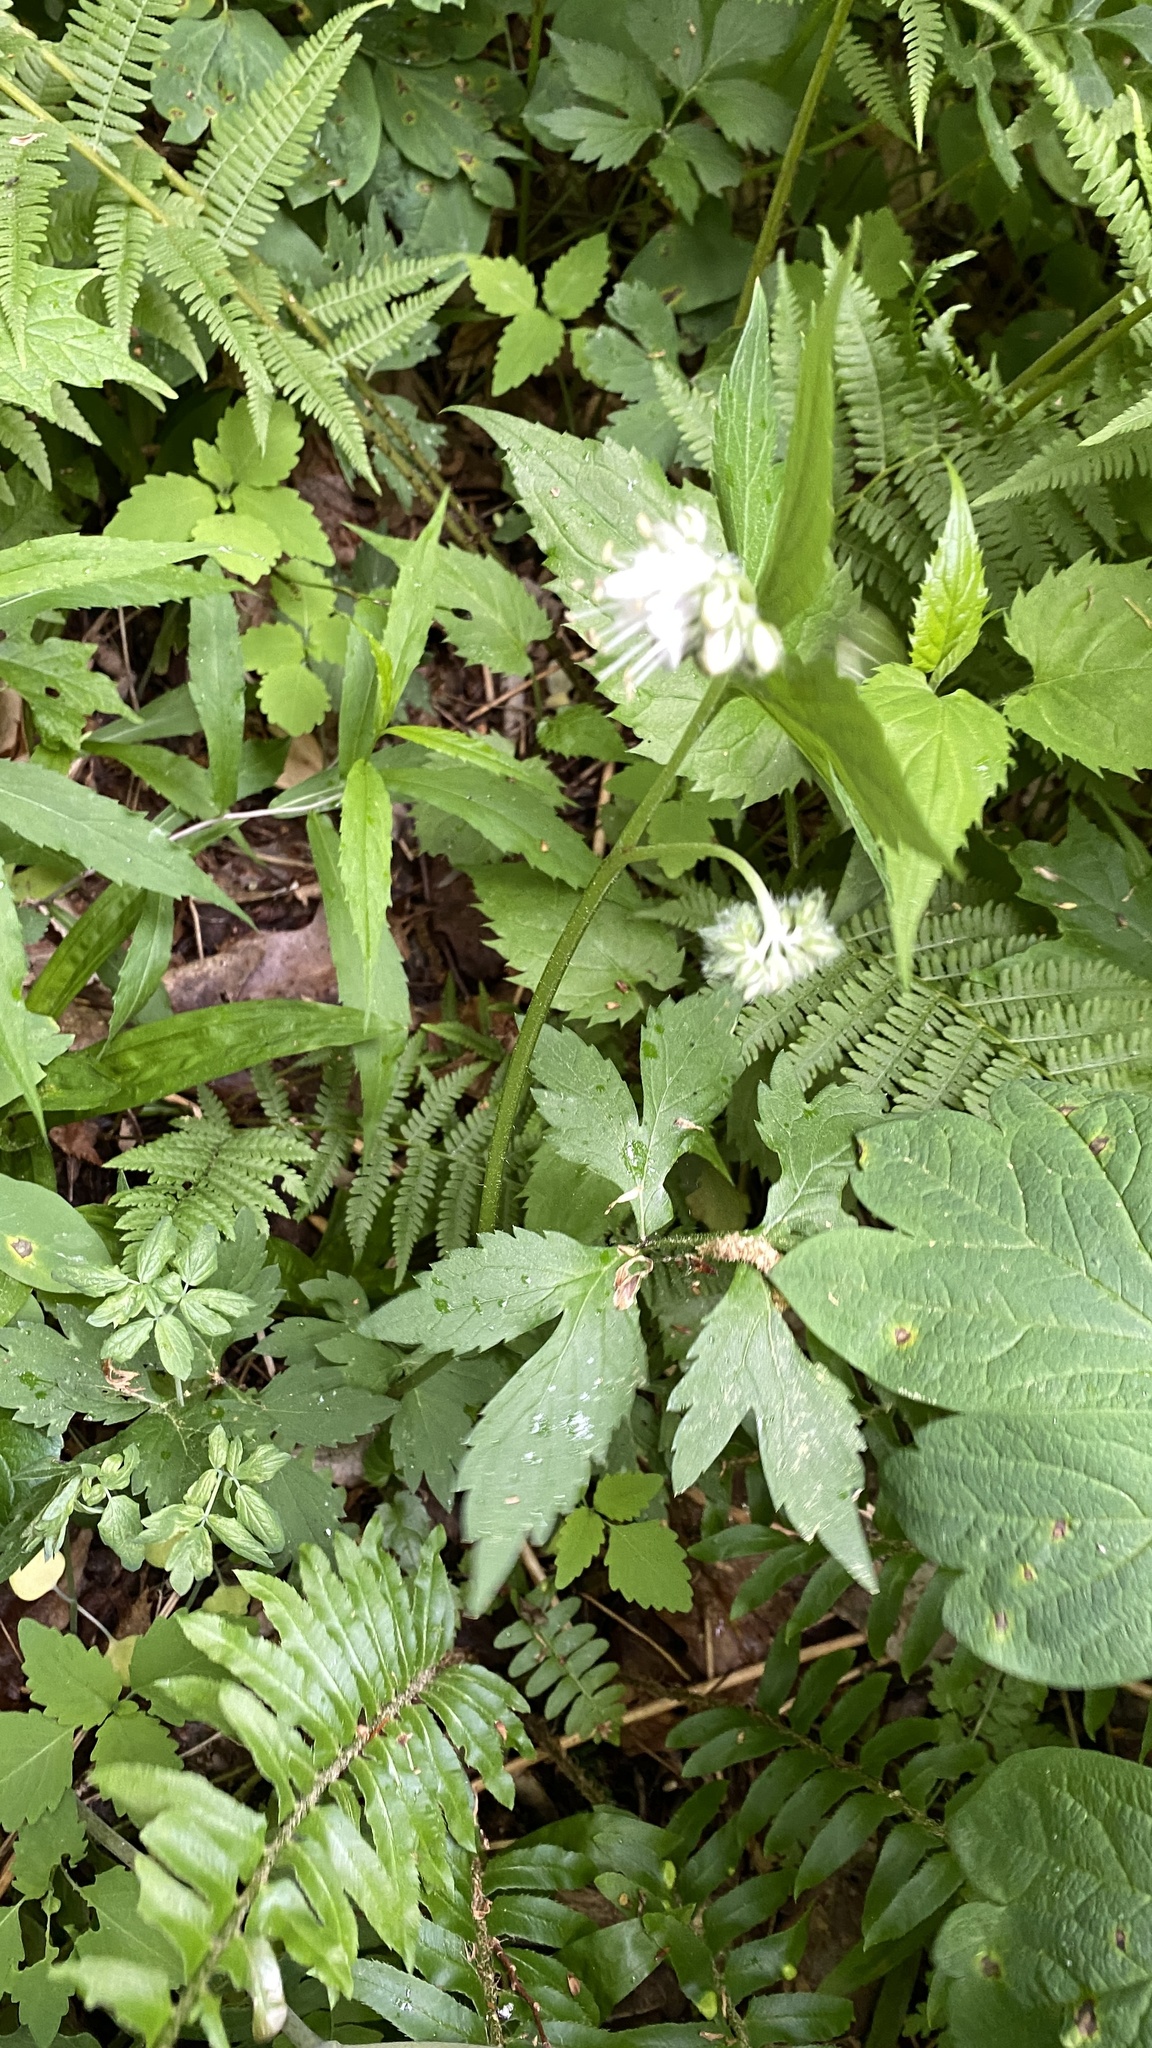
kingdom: Plantae
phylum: Tracheophyta
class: Magnoliopsida
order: Boraginales
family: Hydrophyllaceae
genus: Hydrophyllum
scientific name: Hydrophyllum virginianum
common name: Virginia waterleaf
